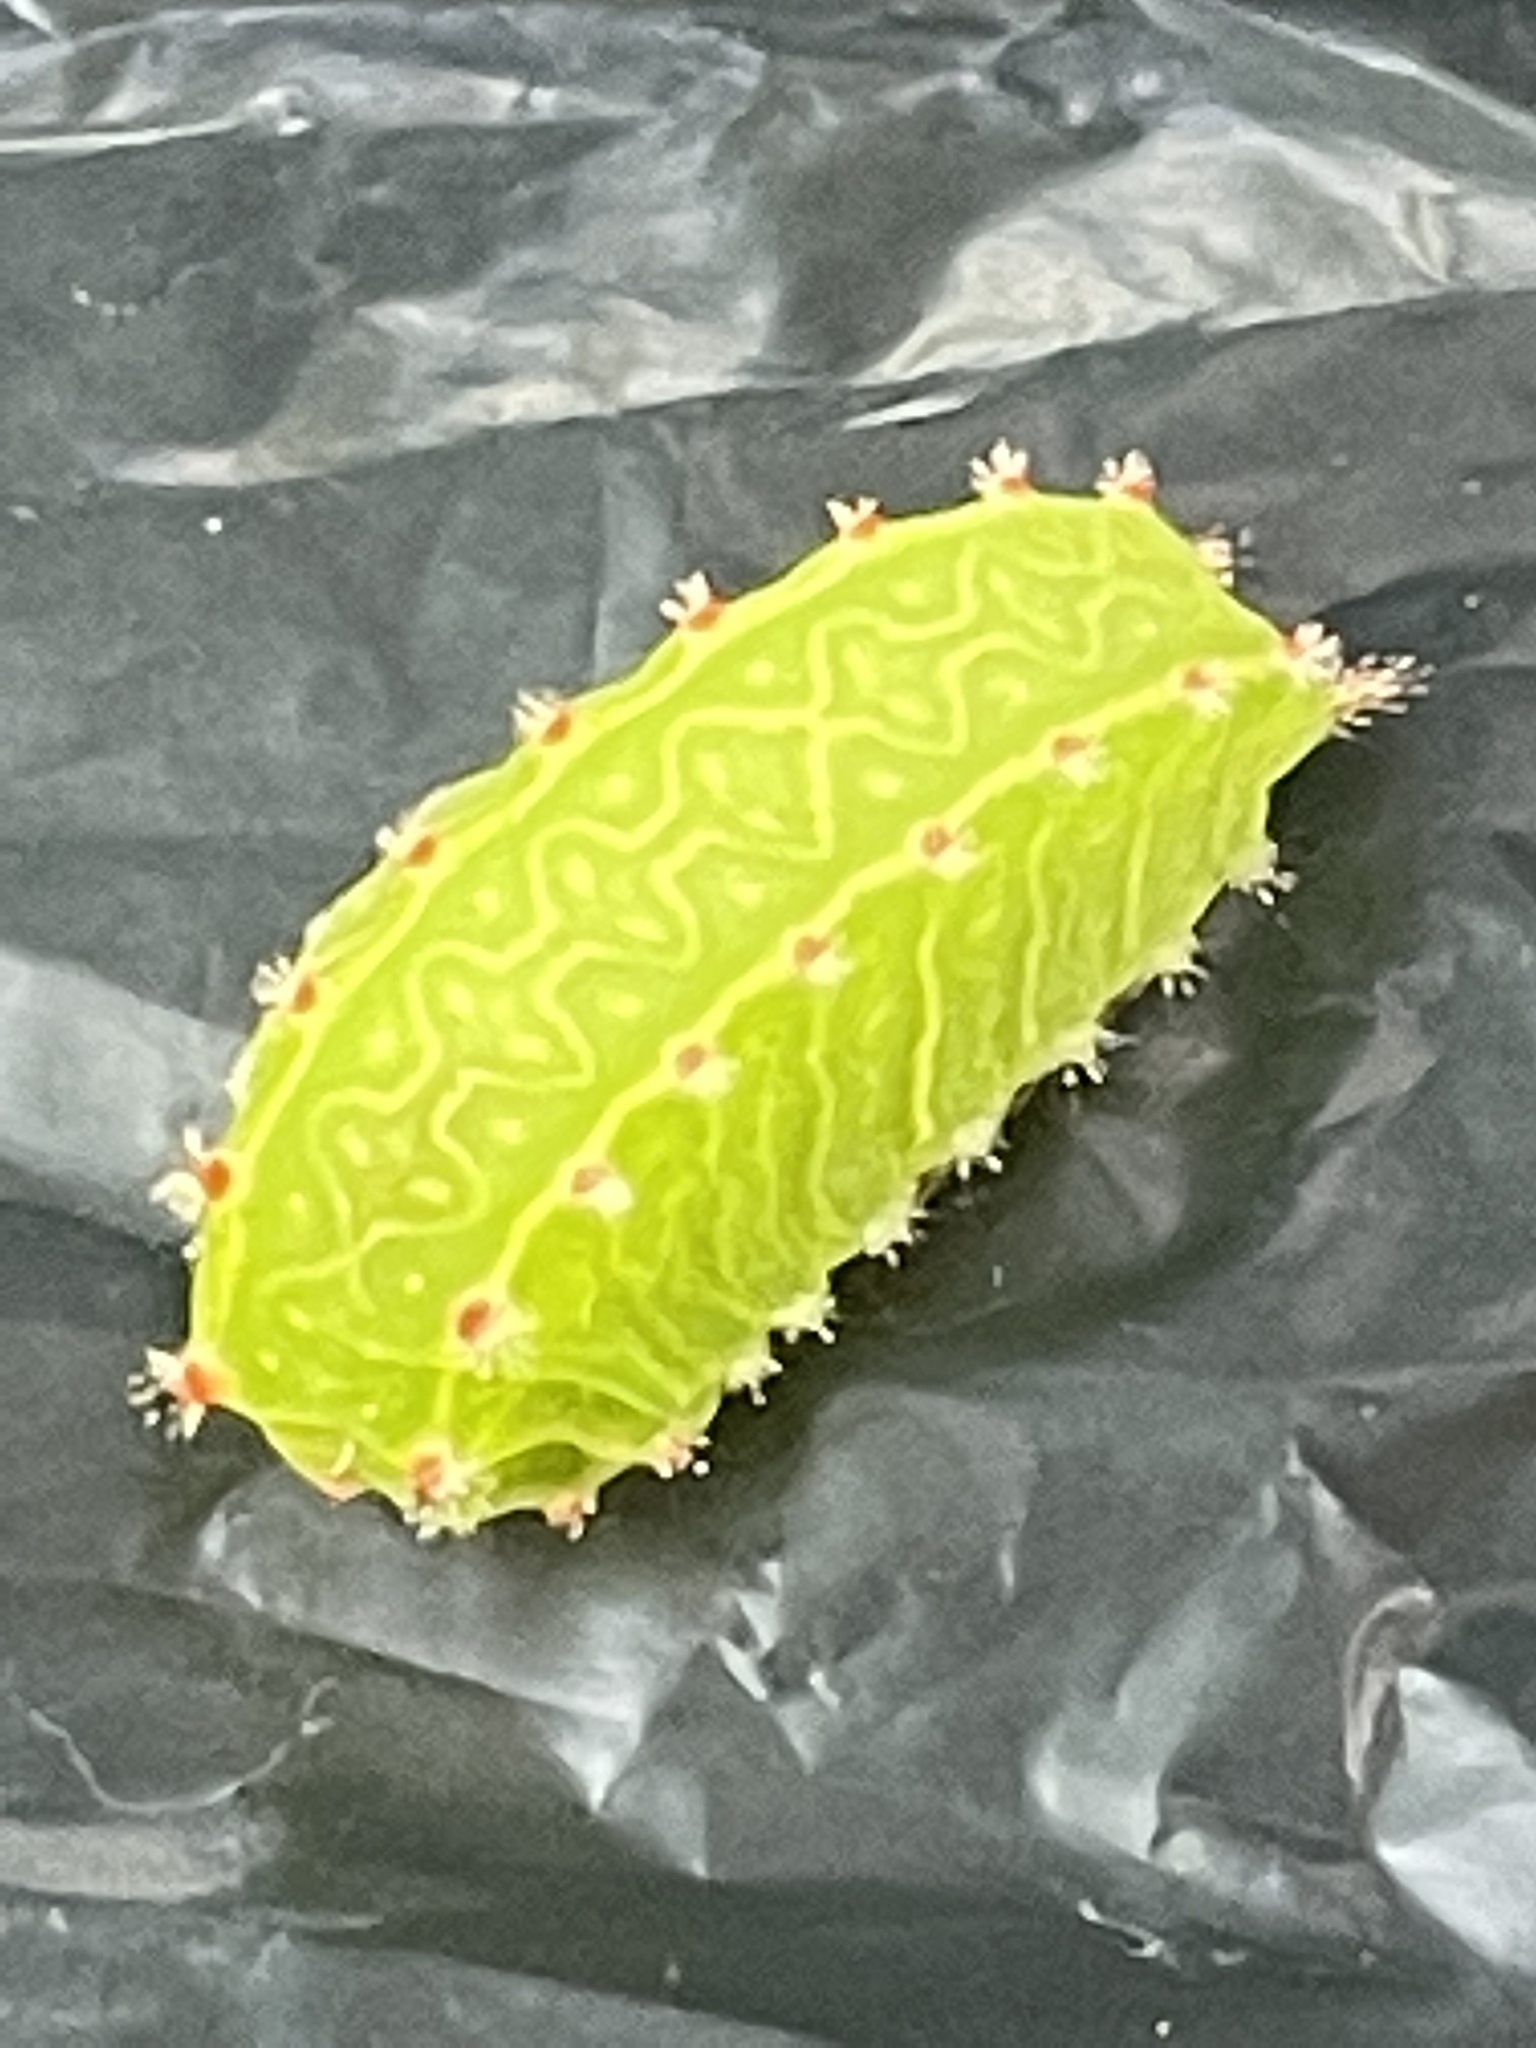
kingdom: Animalia
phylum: Arthropoda
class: Insecta
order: Lepidoptera
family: Limacodidae
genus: Natada
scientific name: Natada nasoni
